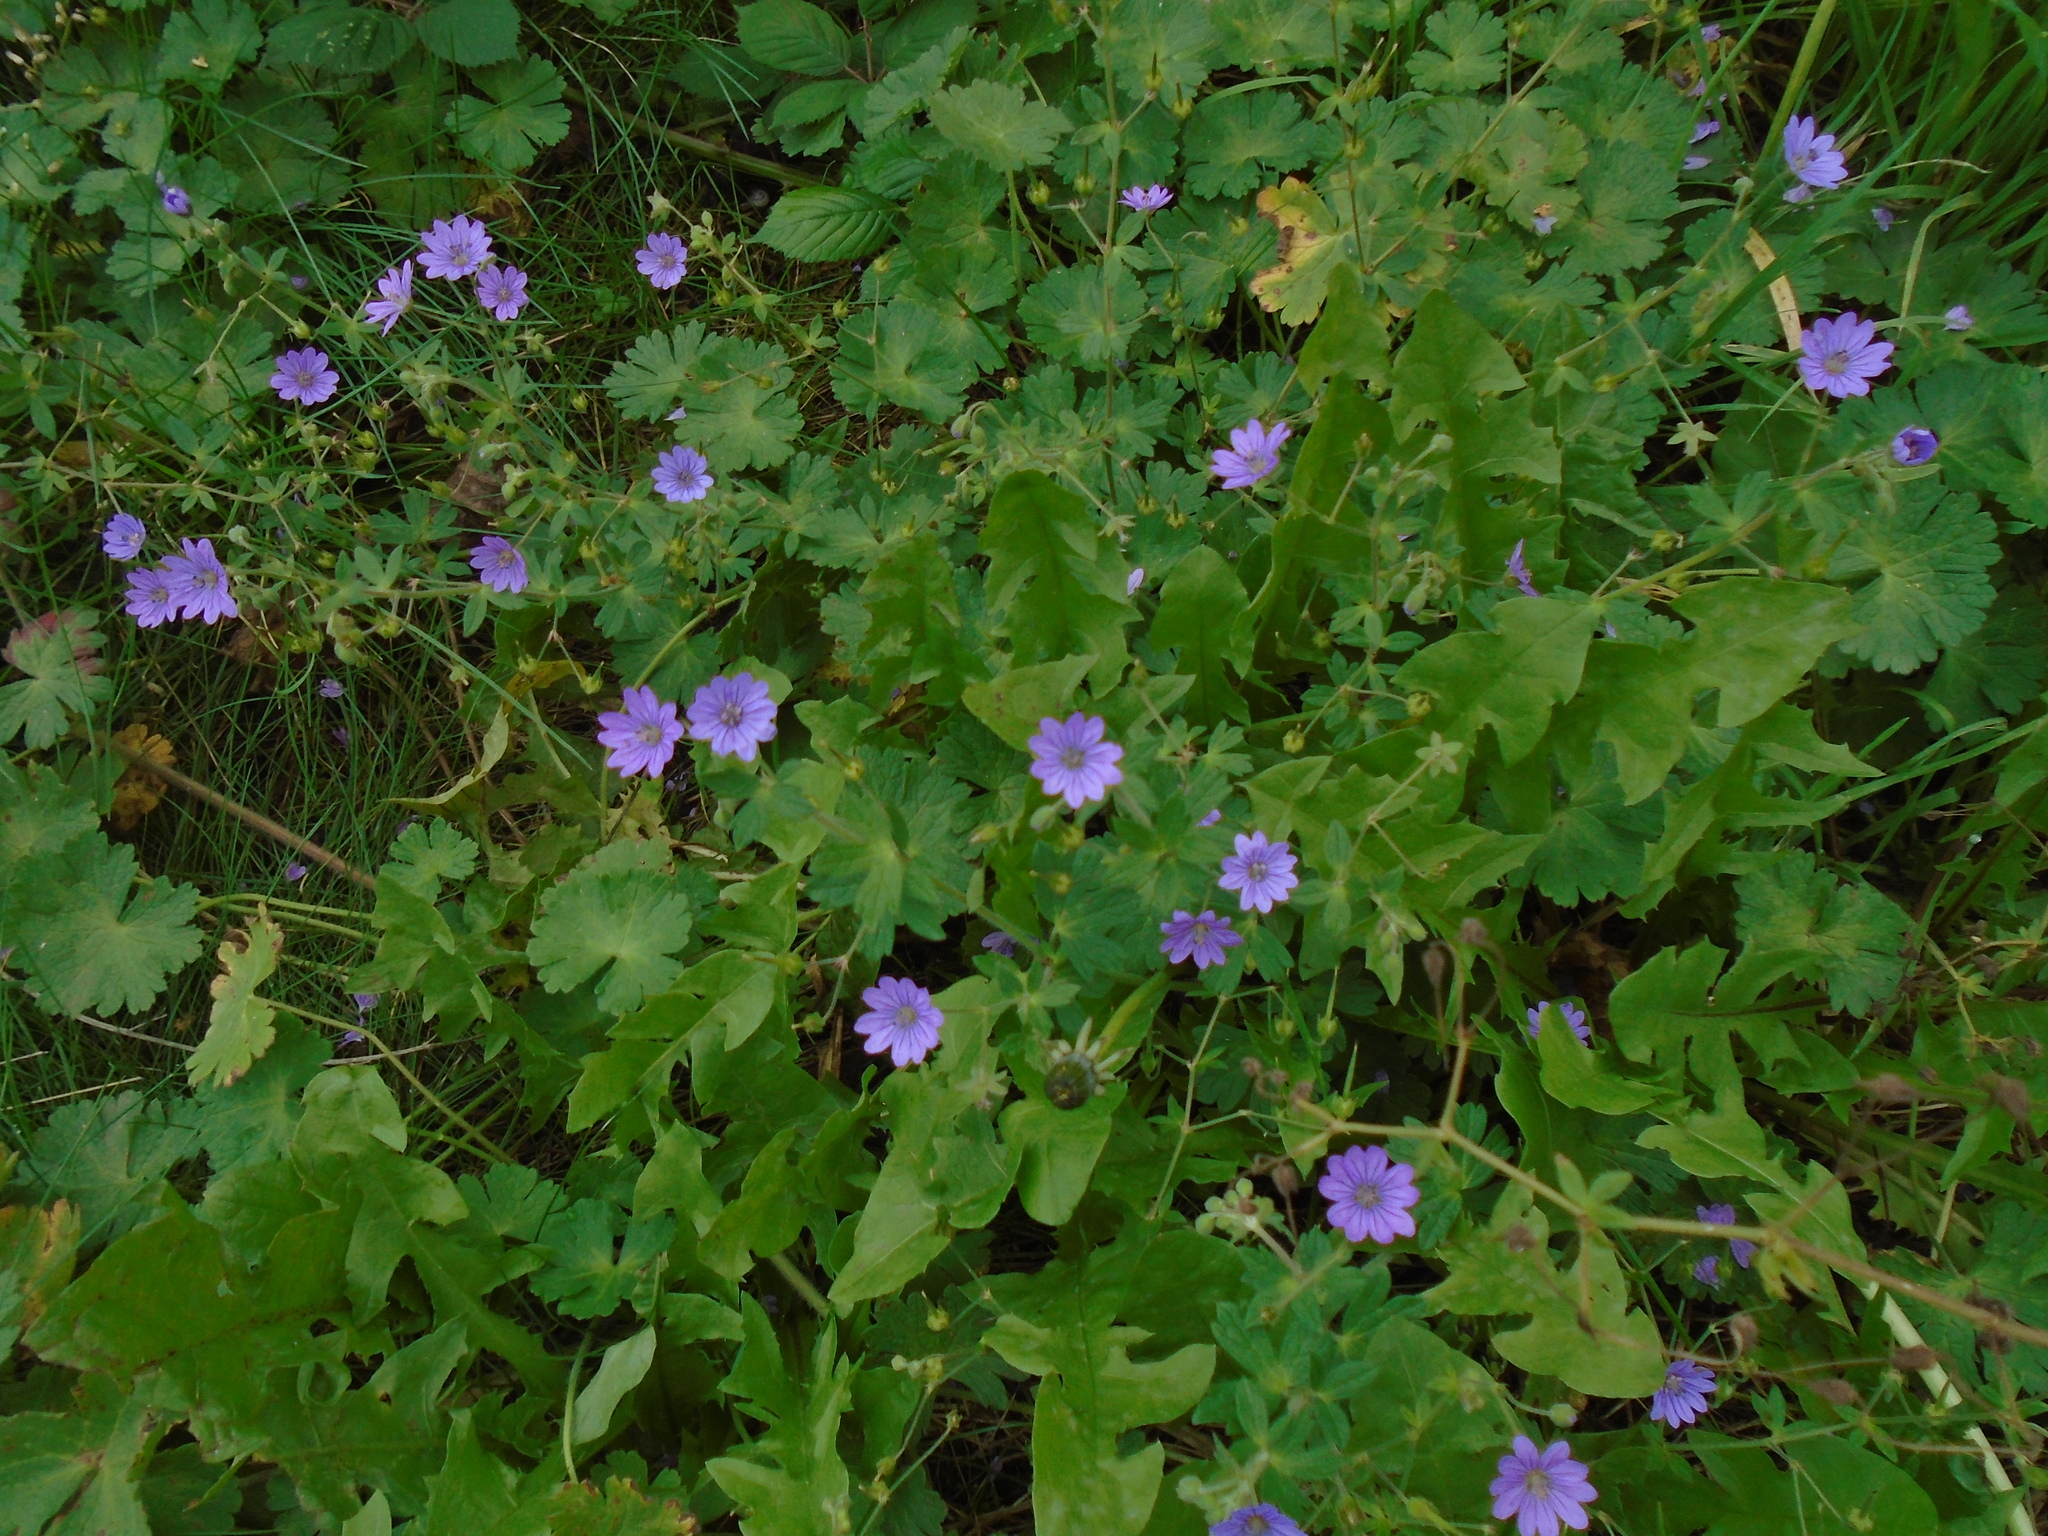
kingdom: Plantae
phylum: Tracheophyta
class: Magnoliopsida
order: Geraniales
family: Geraniaceae
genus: Geranium
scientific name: Geranium pyrenaicum
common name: Hedgerow crane's-bill
